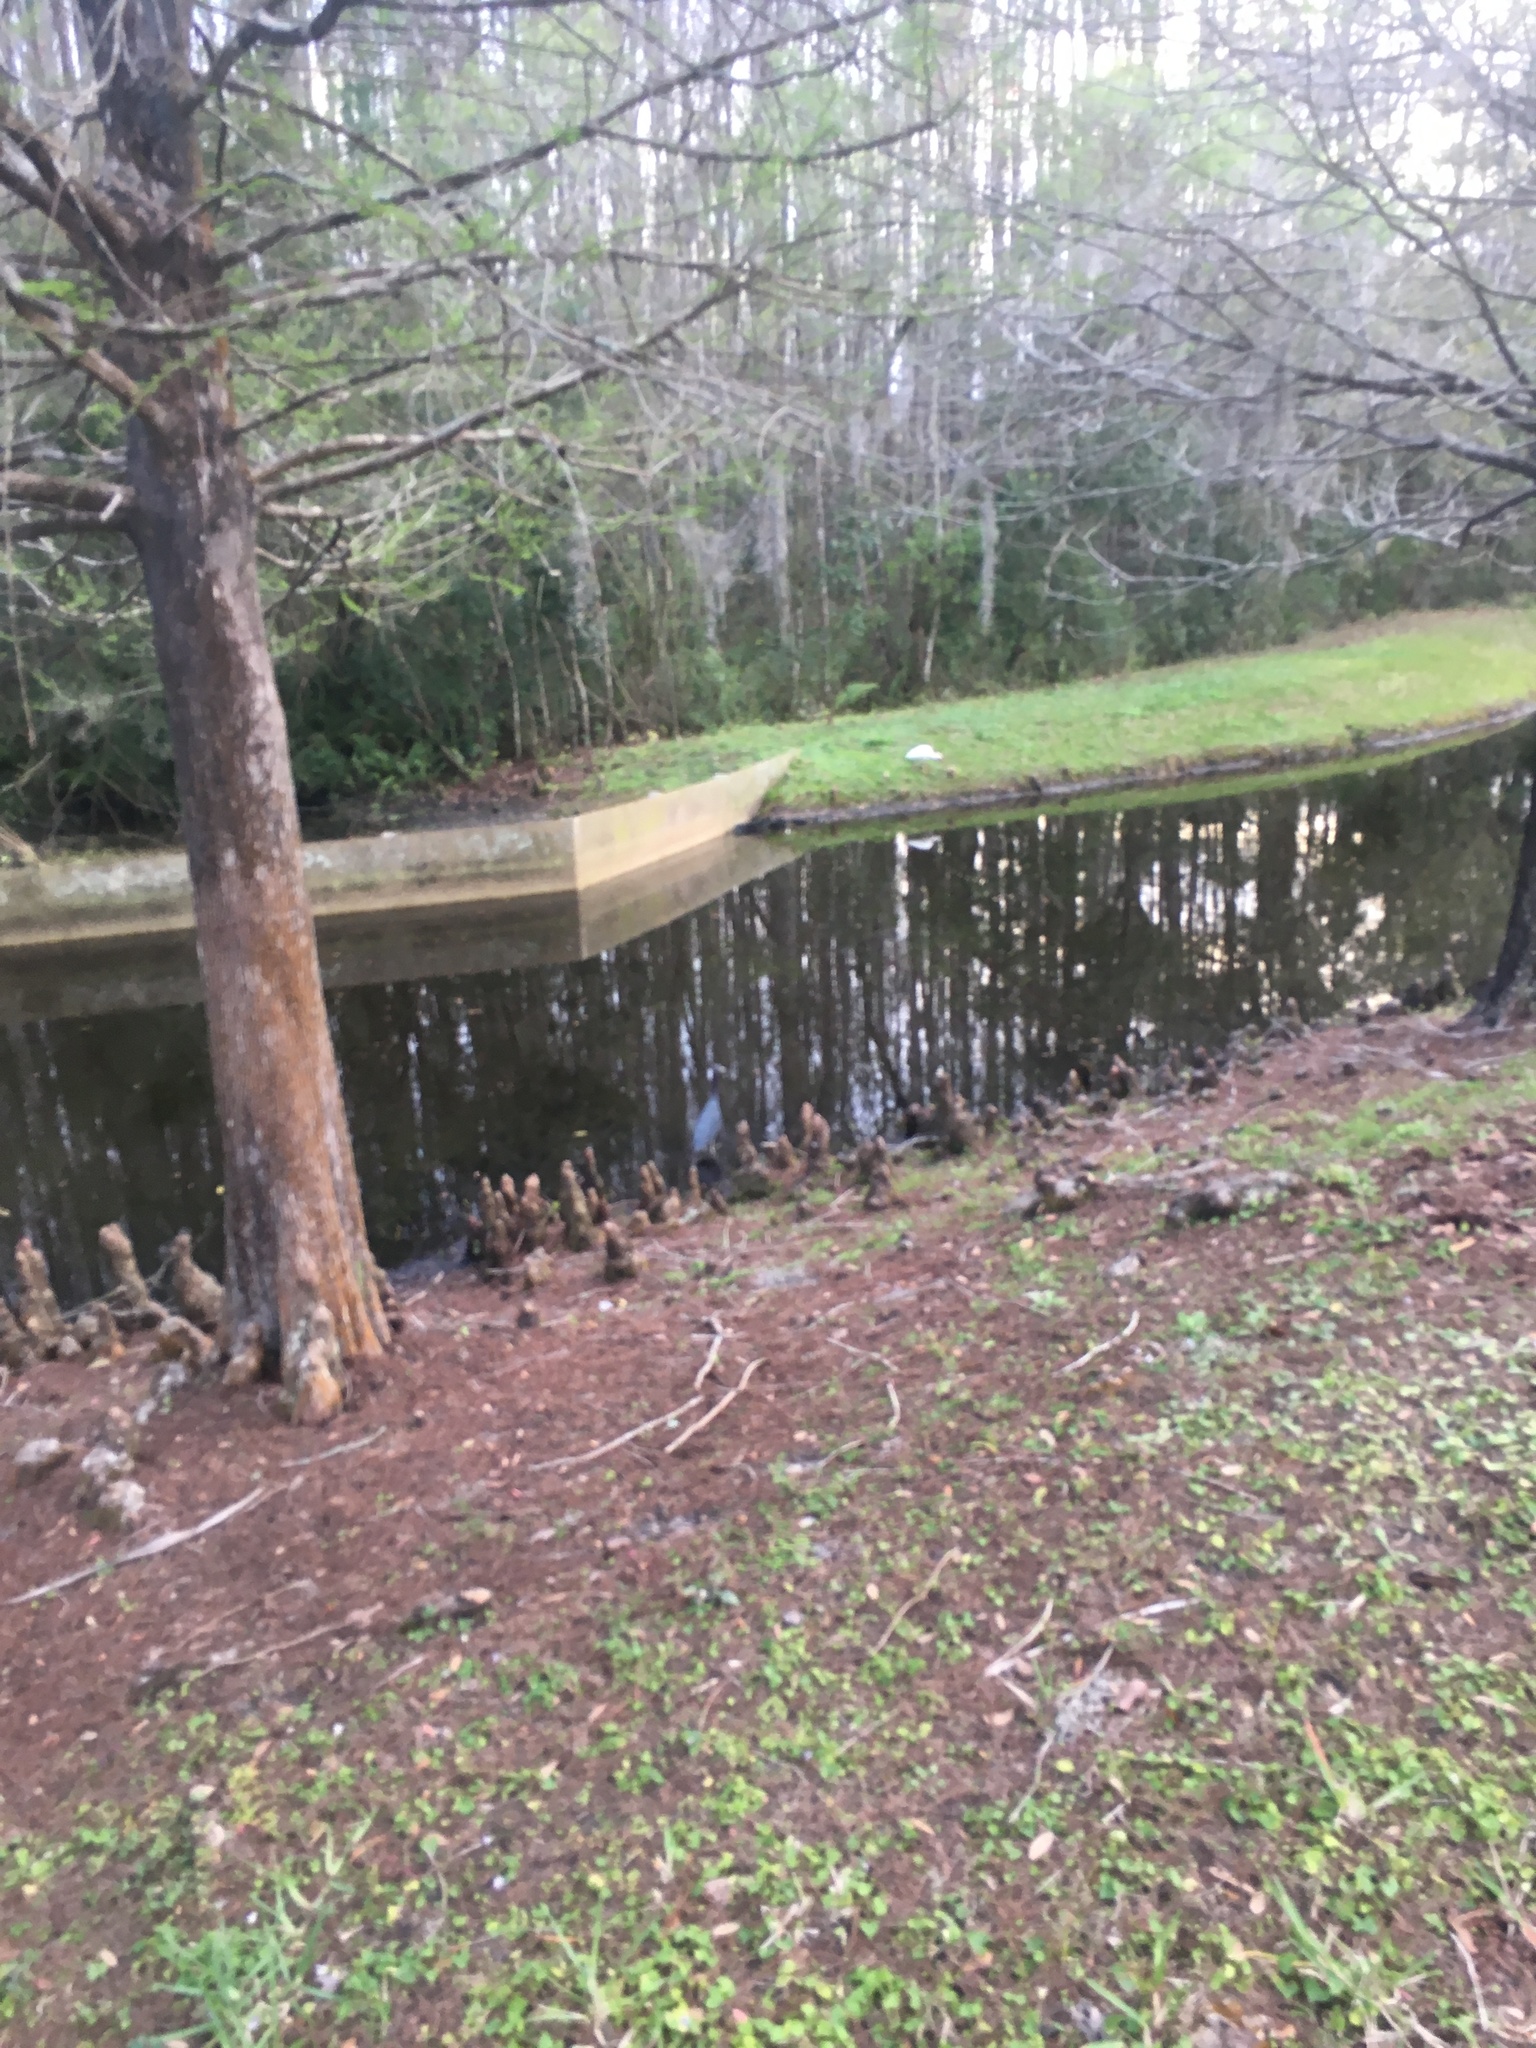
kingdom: Animalia
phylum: Chordata
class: Aves
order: Pelecaniformes
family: Threskiornithidae
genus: Eudocimus
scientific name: Eudocimus albus
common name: White ibis
